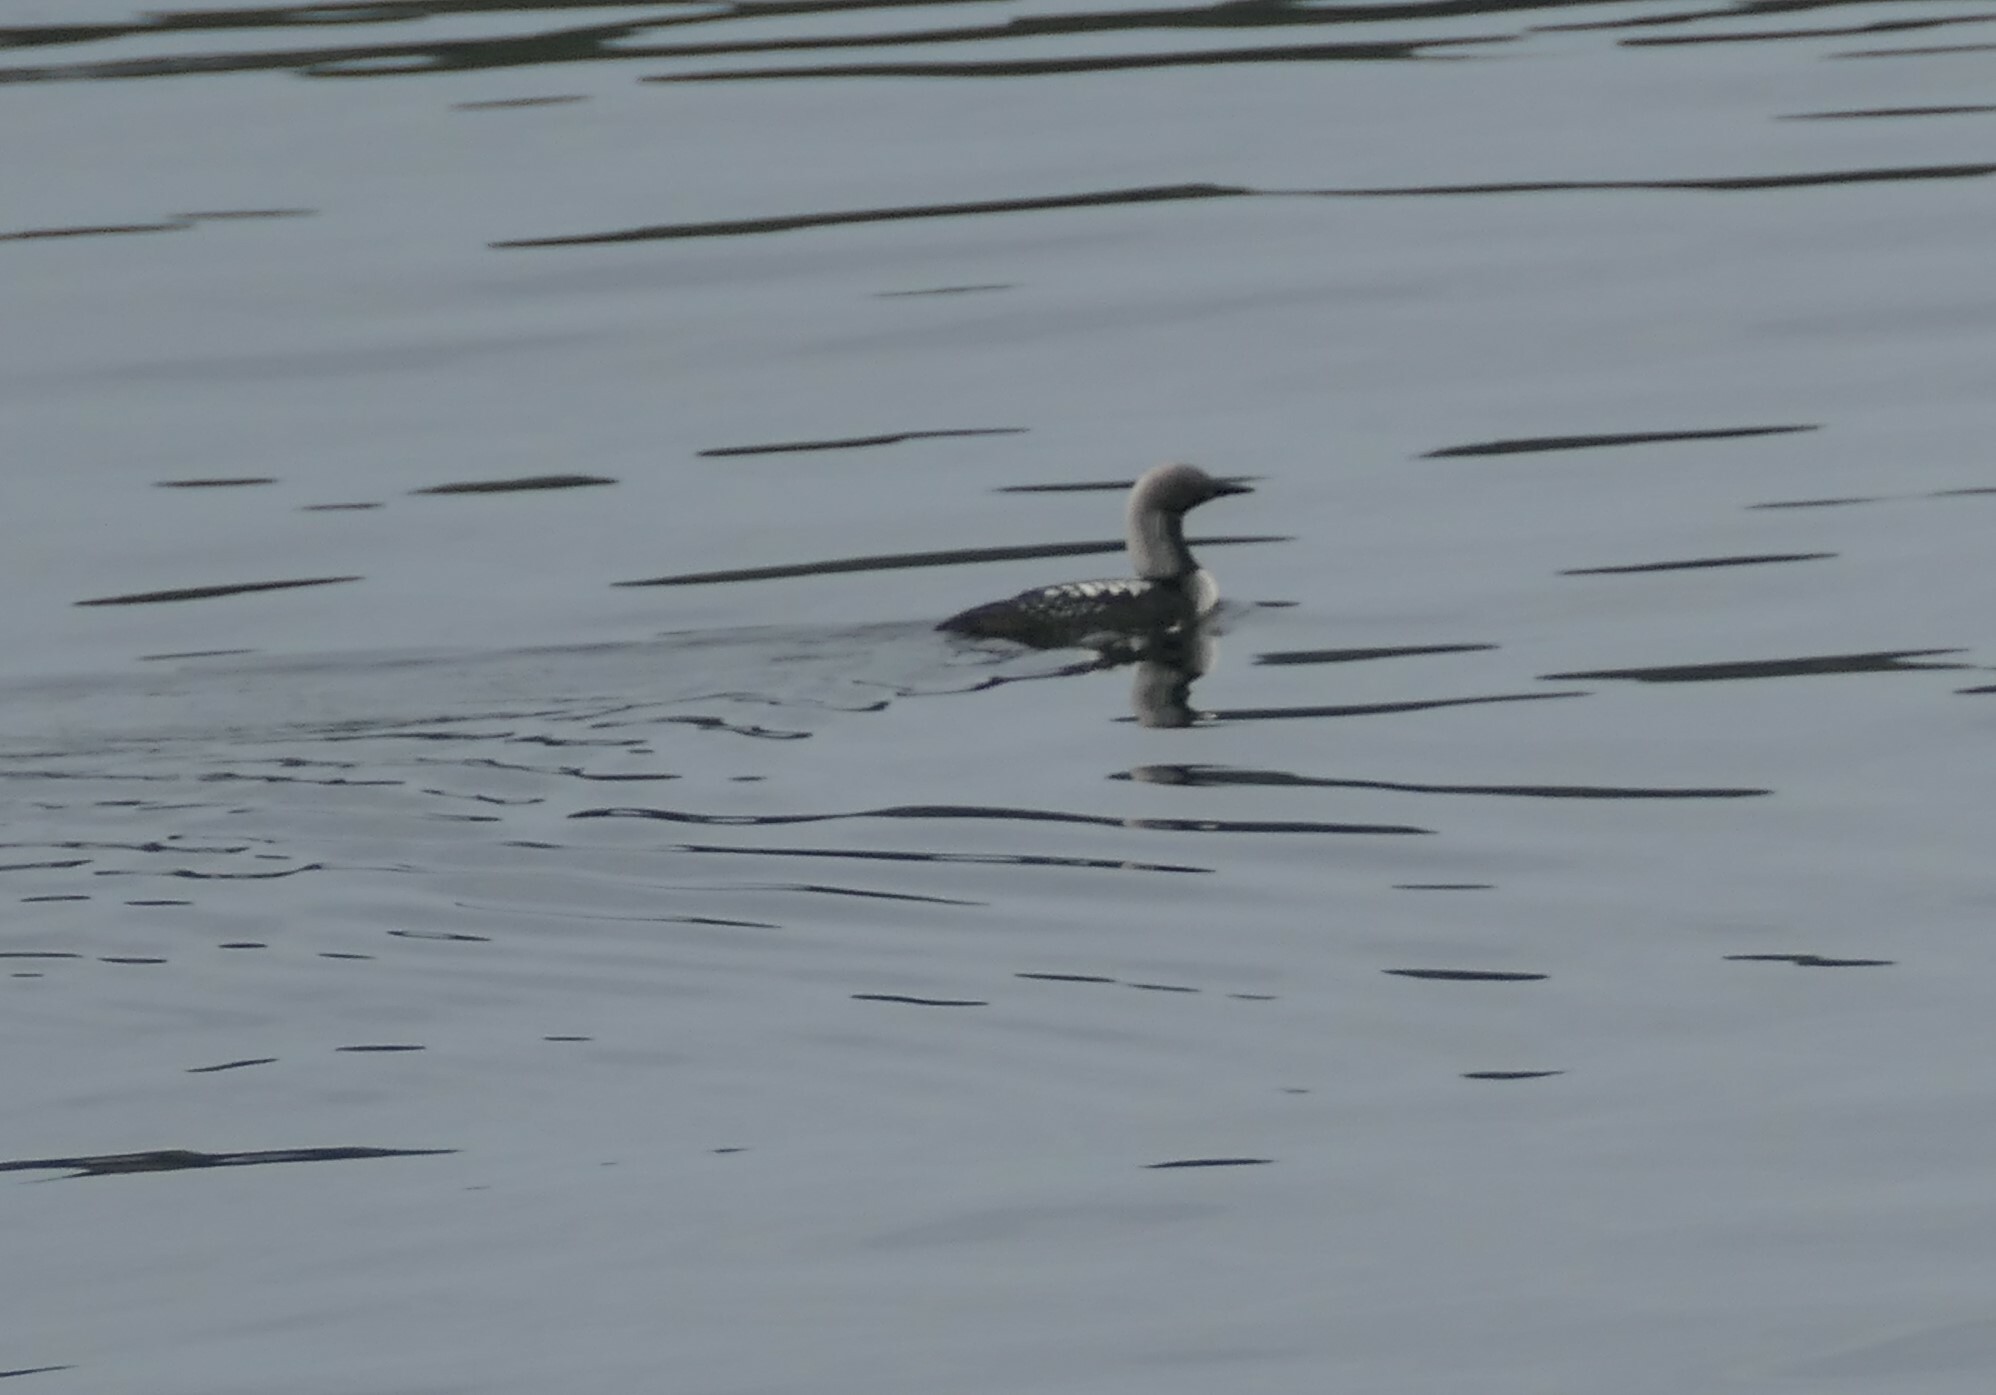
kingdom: Animalia
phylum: Chordata
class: Aves
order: Gaviiformes
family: Gaviidae
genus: Gavia
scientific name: Gavia pacifica
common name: Pacific loon
